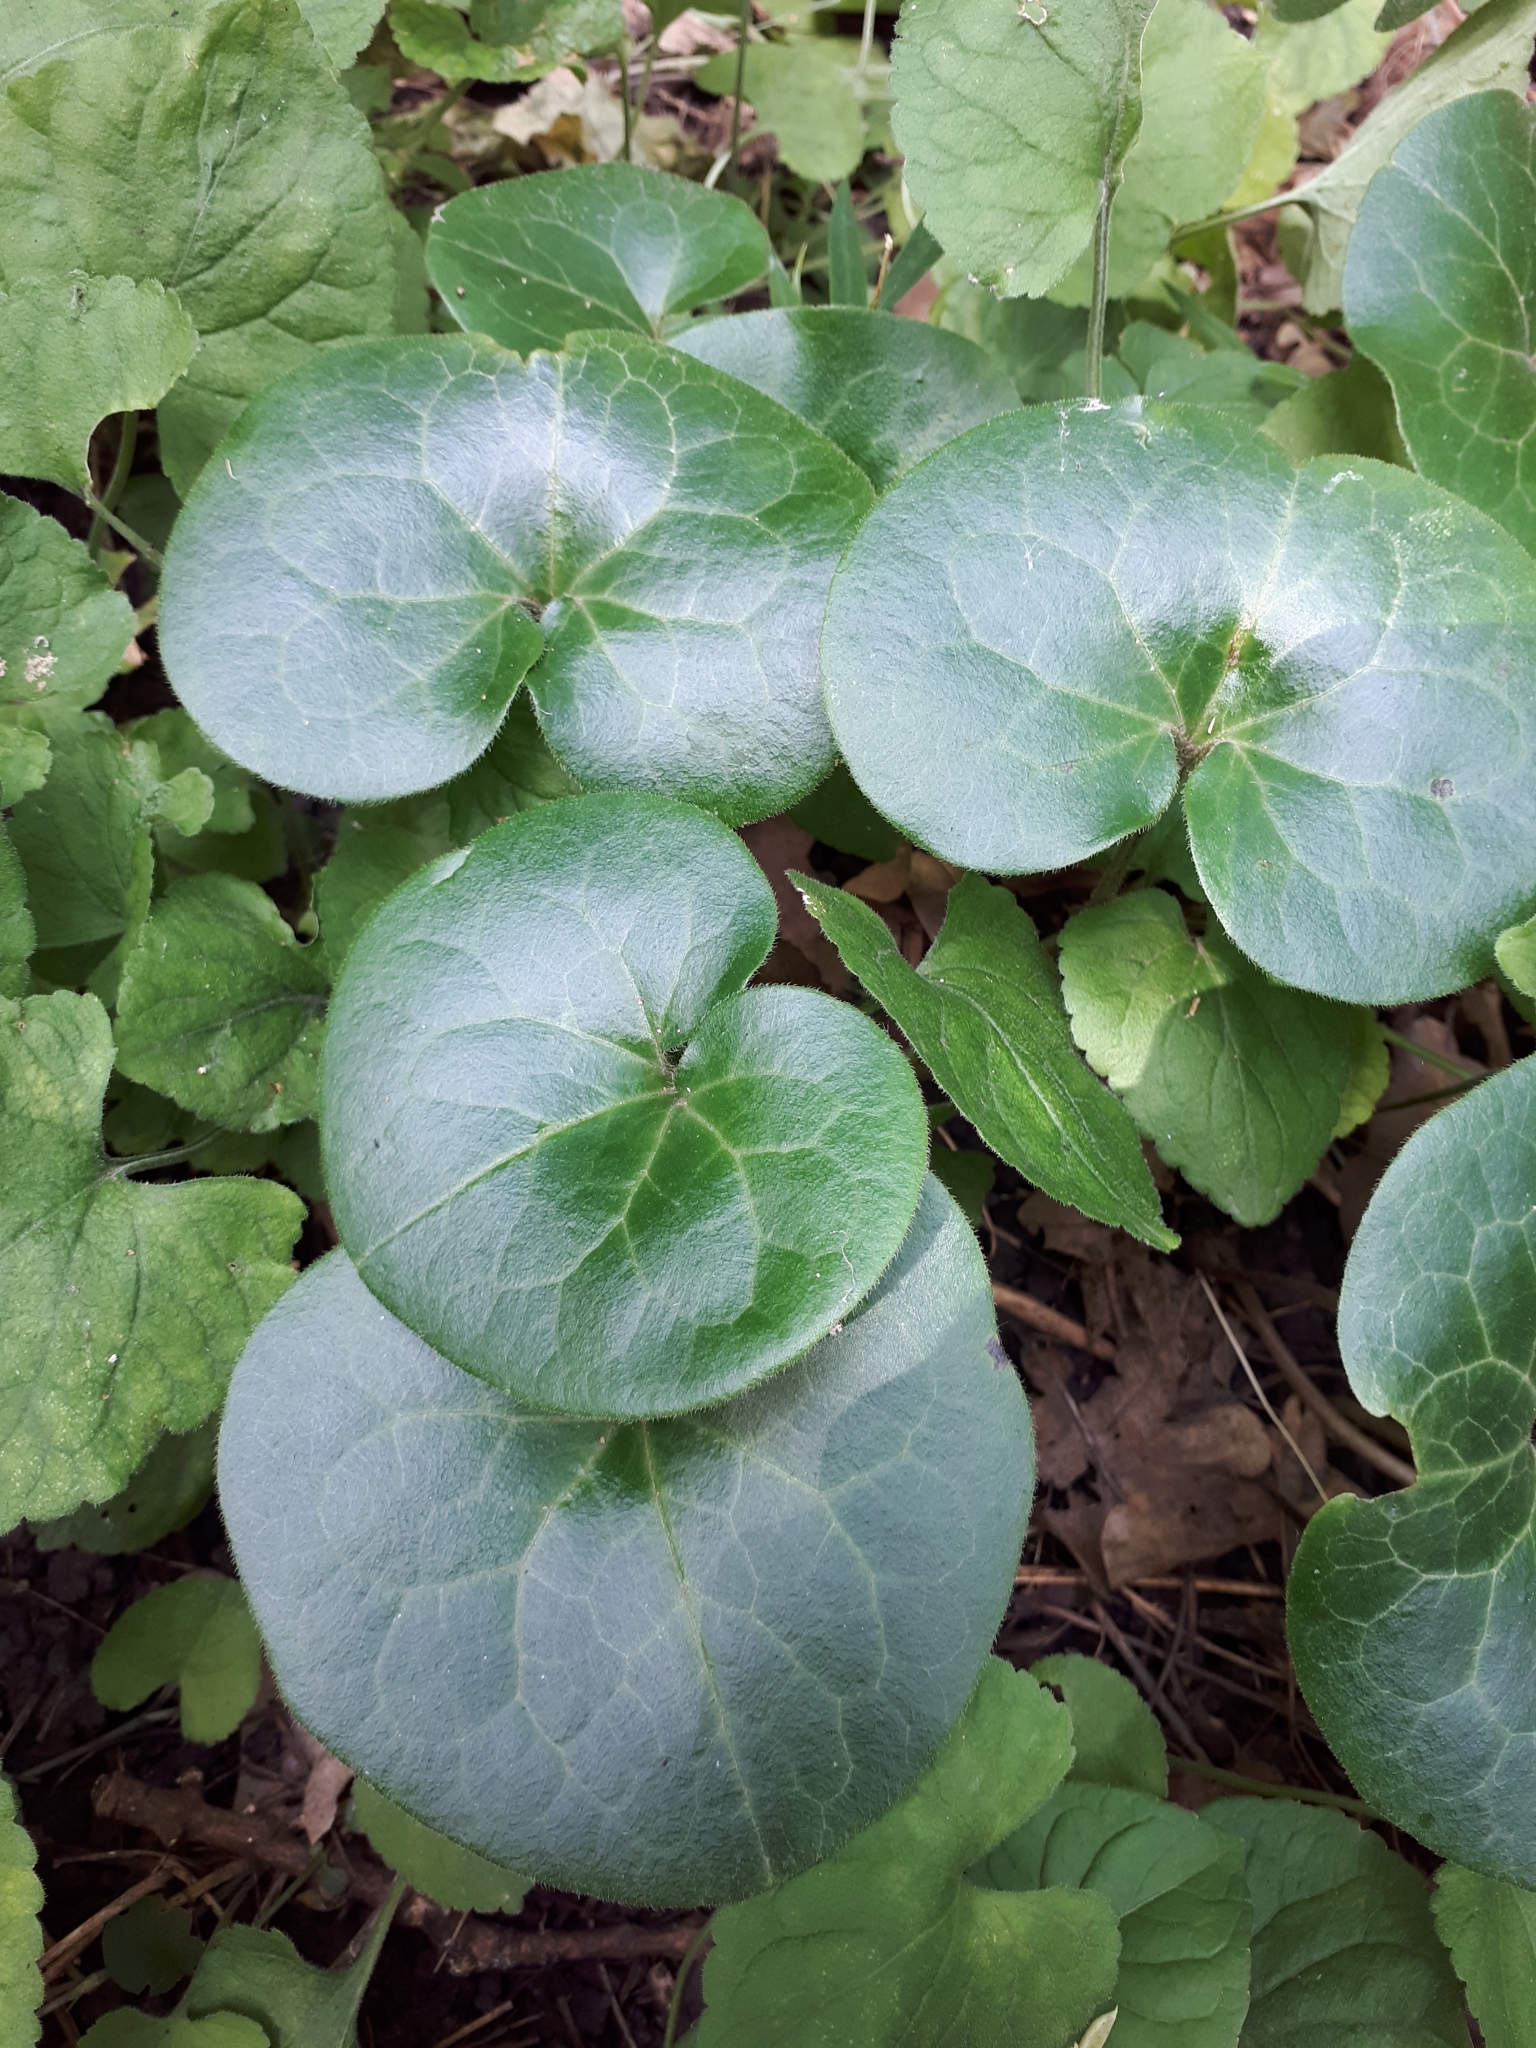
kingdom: Plantae
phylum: Tracheophyta
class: Magnoliopsida
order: Piperales
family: Aristolochiaceae
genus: Asarum
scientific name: Asarum europaeum
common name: Asarabacca
